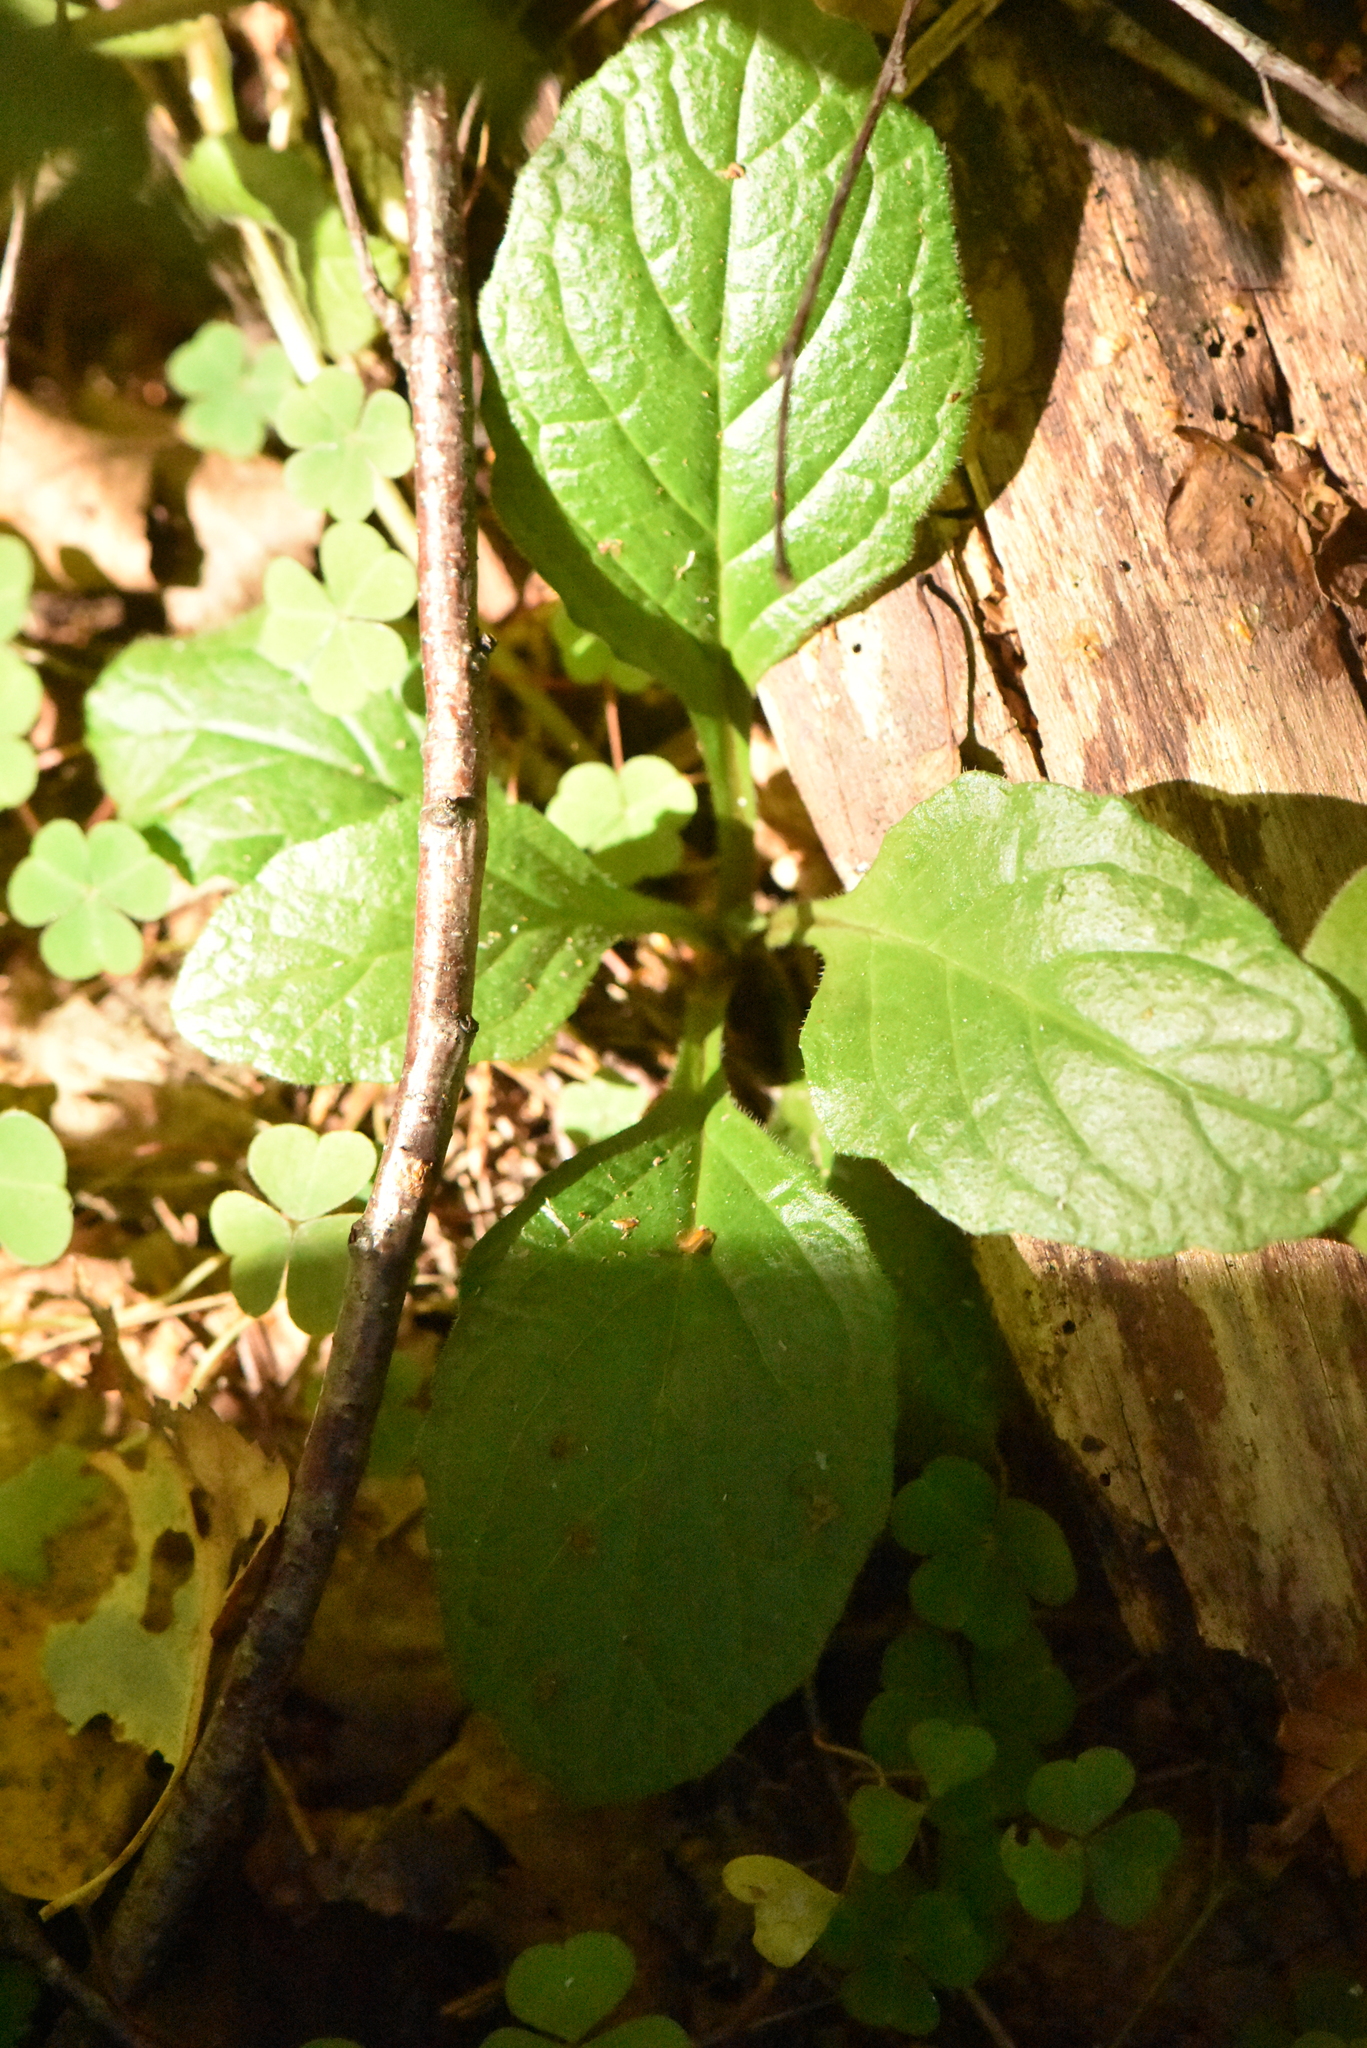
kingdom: Plantae
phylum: Tracheophyta
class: Magnoliopsida
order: Lamiales
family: Lamiaceae
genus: Ajuga
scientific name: Ajuga reptans
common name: Bugle
